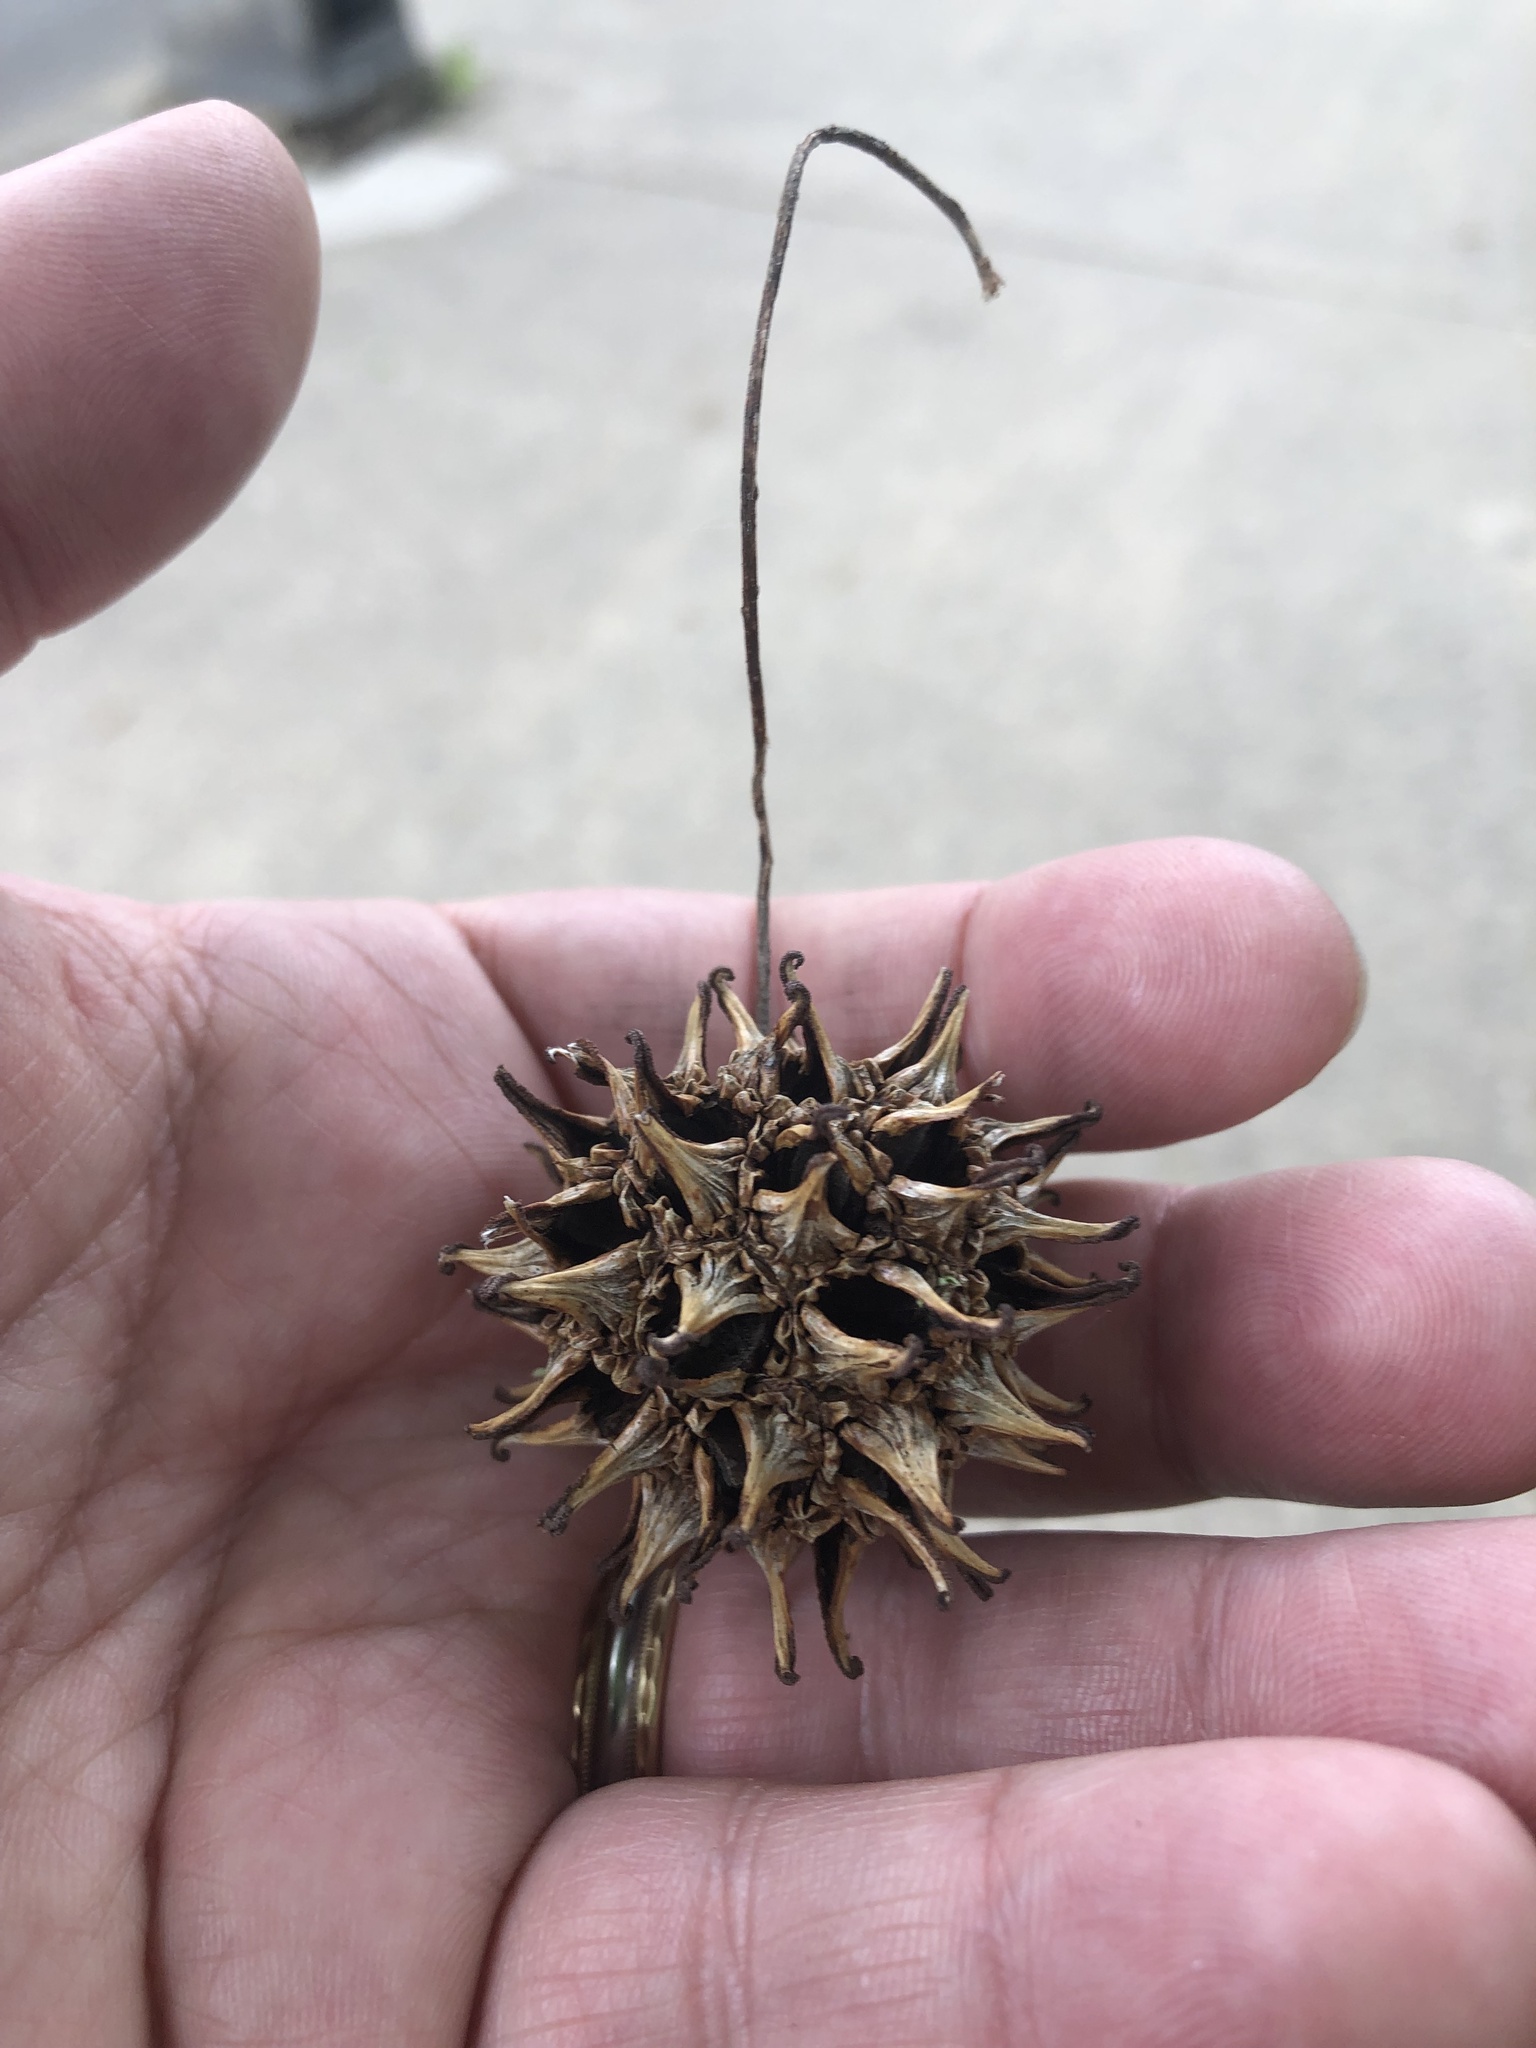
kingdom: Plantae
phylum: Tracheophyta
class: Magnoliopsida
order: Saxifragales
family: Altingiaceae
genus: Liquidambar
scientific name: Liquidambar styraciflua
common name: Sweet gum
